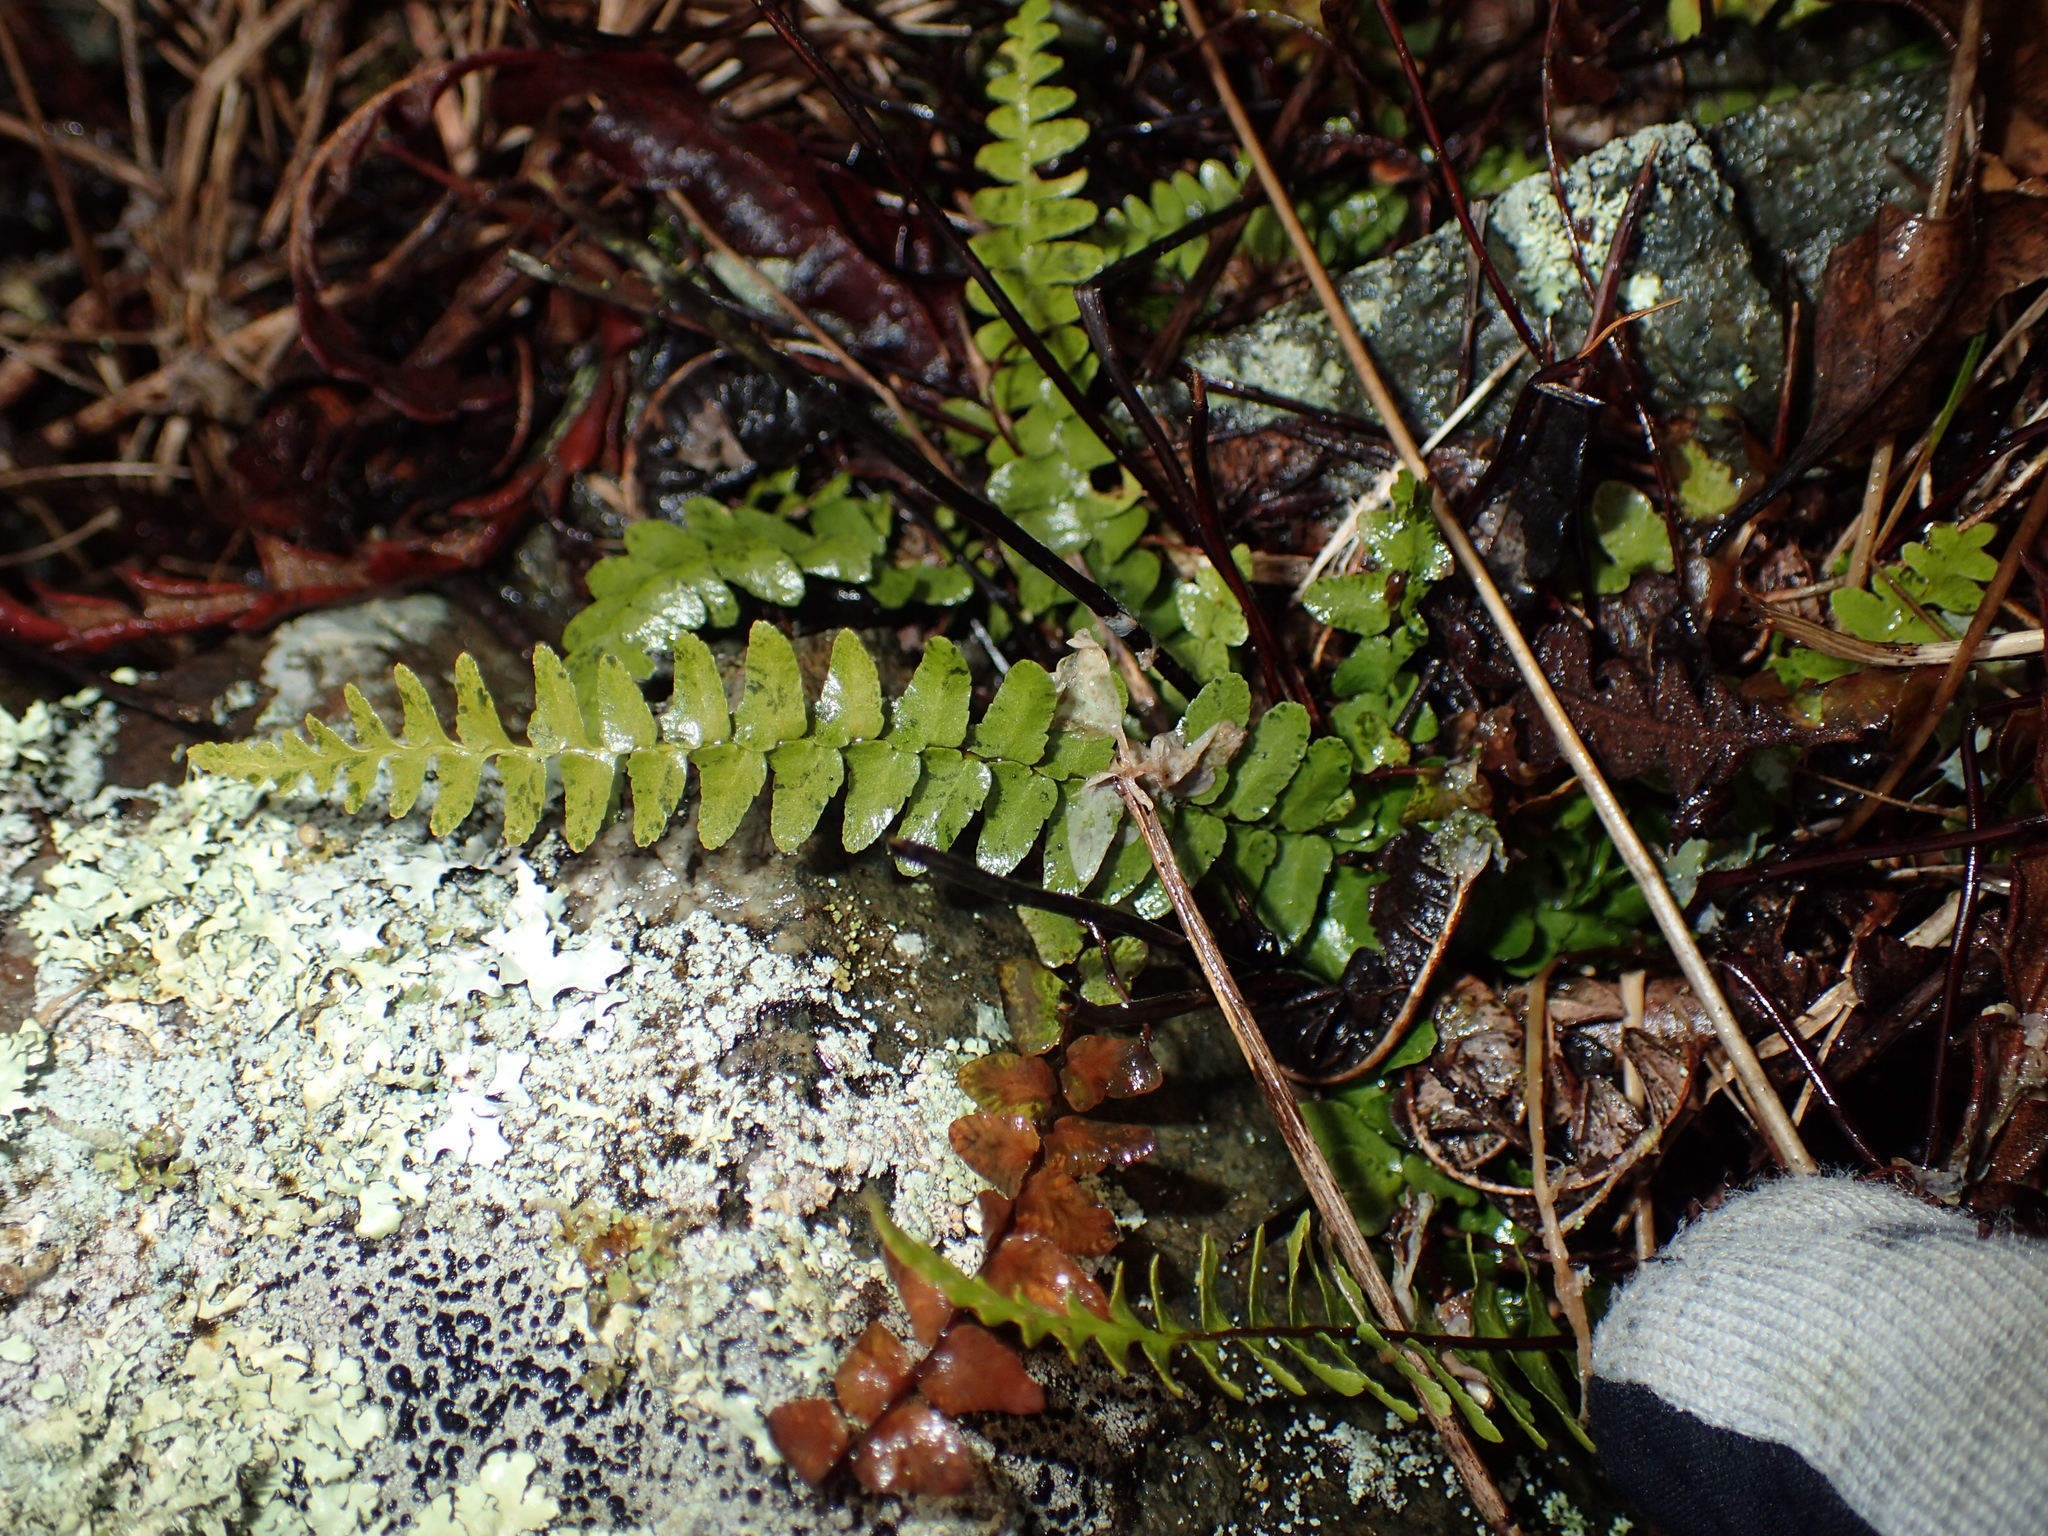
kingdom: Plantae
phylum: Tracheophyta
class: Polypodiopsida
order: Polypodiales
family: Aspleniaceae
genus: Asplenium
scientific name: Asplenium platyneuron
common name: Ebony spleenwort
